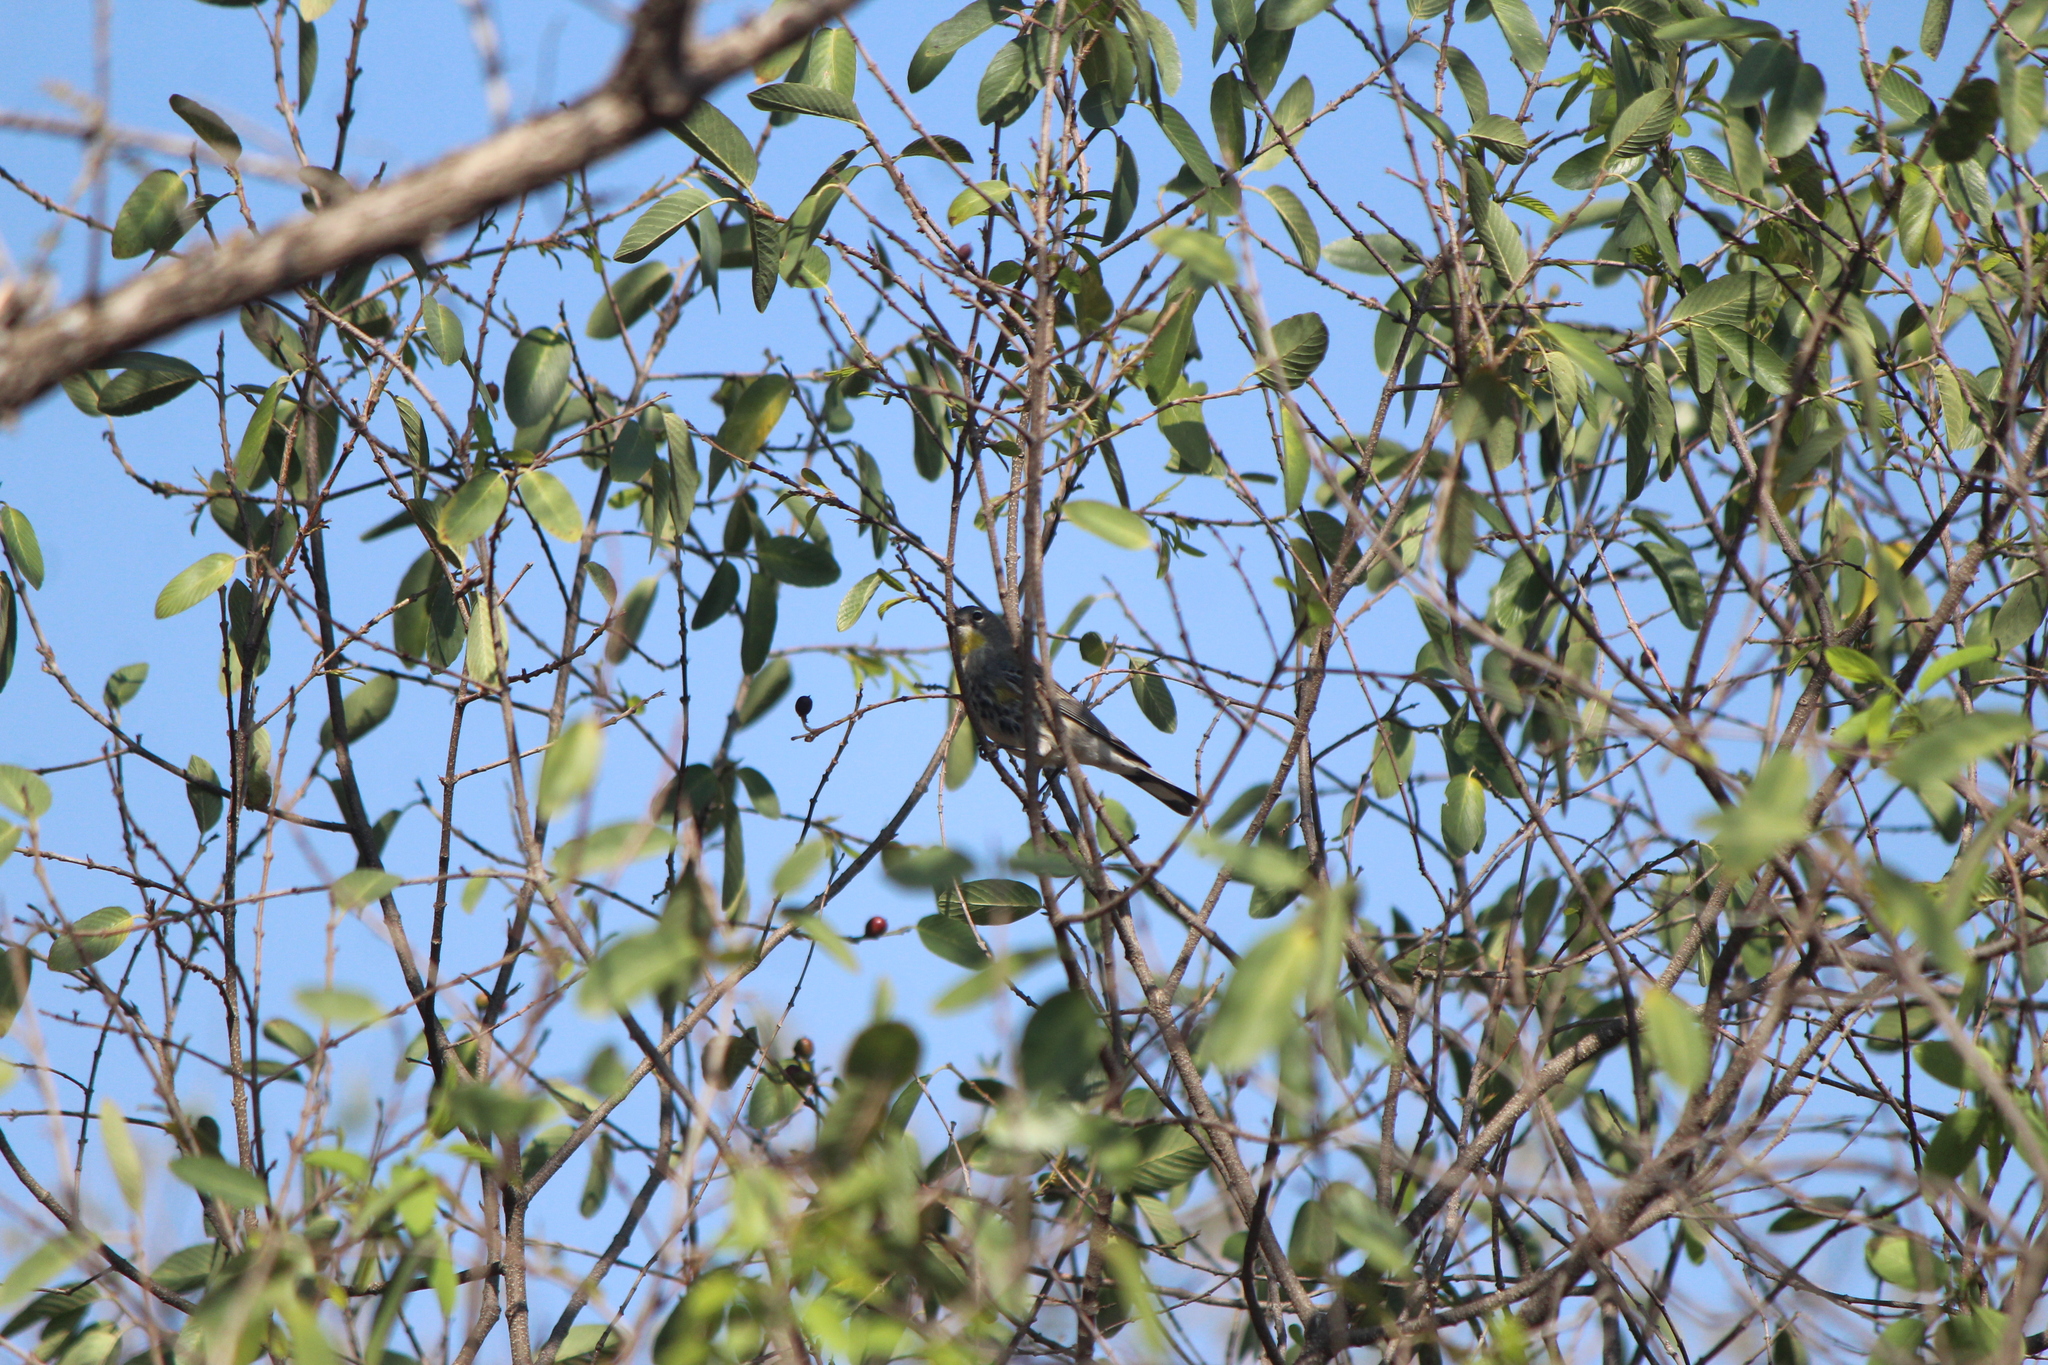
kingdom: Animalia
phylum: Chordata
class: Aves
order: Passeriformes
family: Parulidae
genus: Setophaga
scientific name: Setophaga coronata
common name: Myrtle warbler
